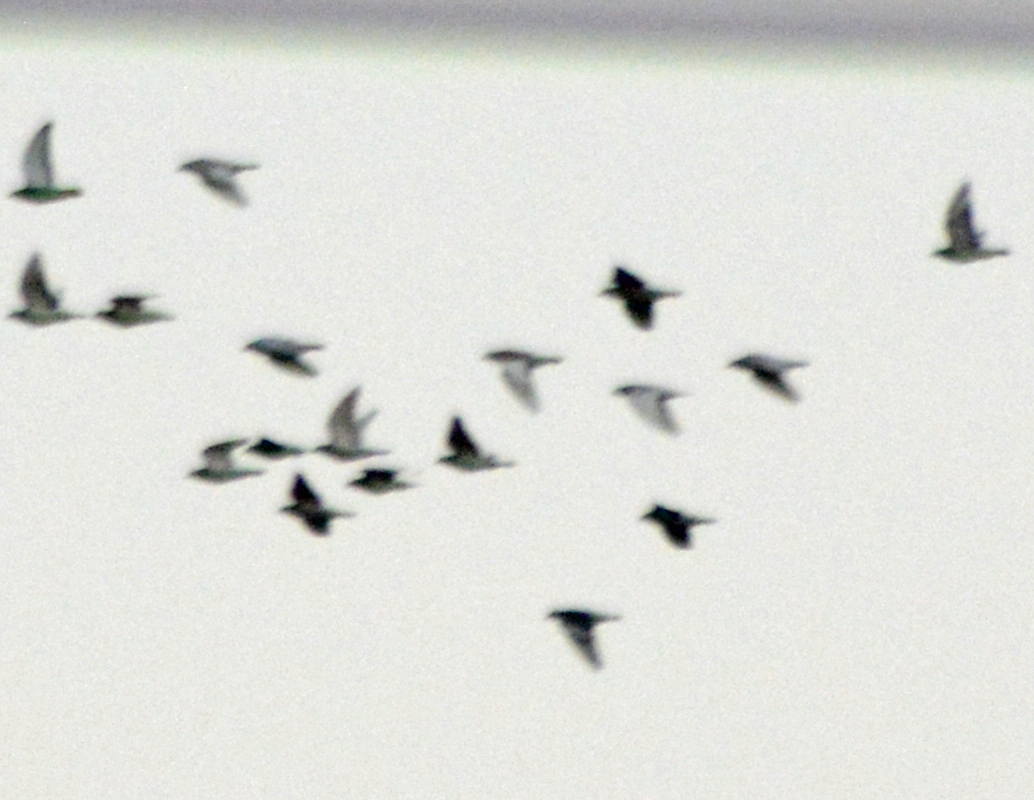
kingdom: Animalia
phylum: Chordata
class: Aves
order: Columbiformes
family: Columbidae
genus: Columba
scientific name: Columba livia
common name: Rock pigeon
